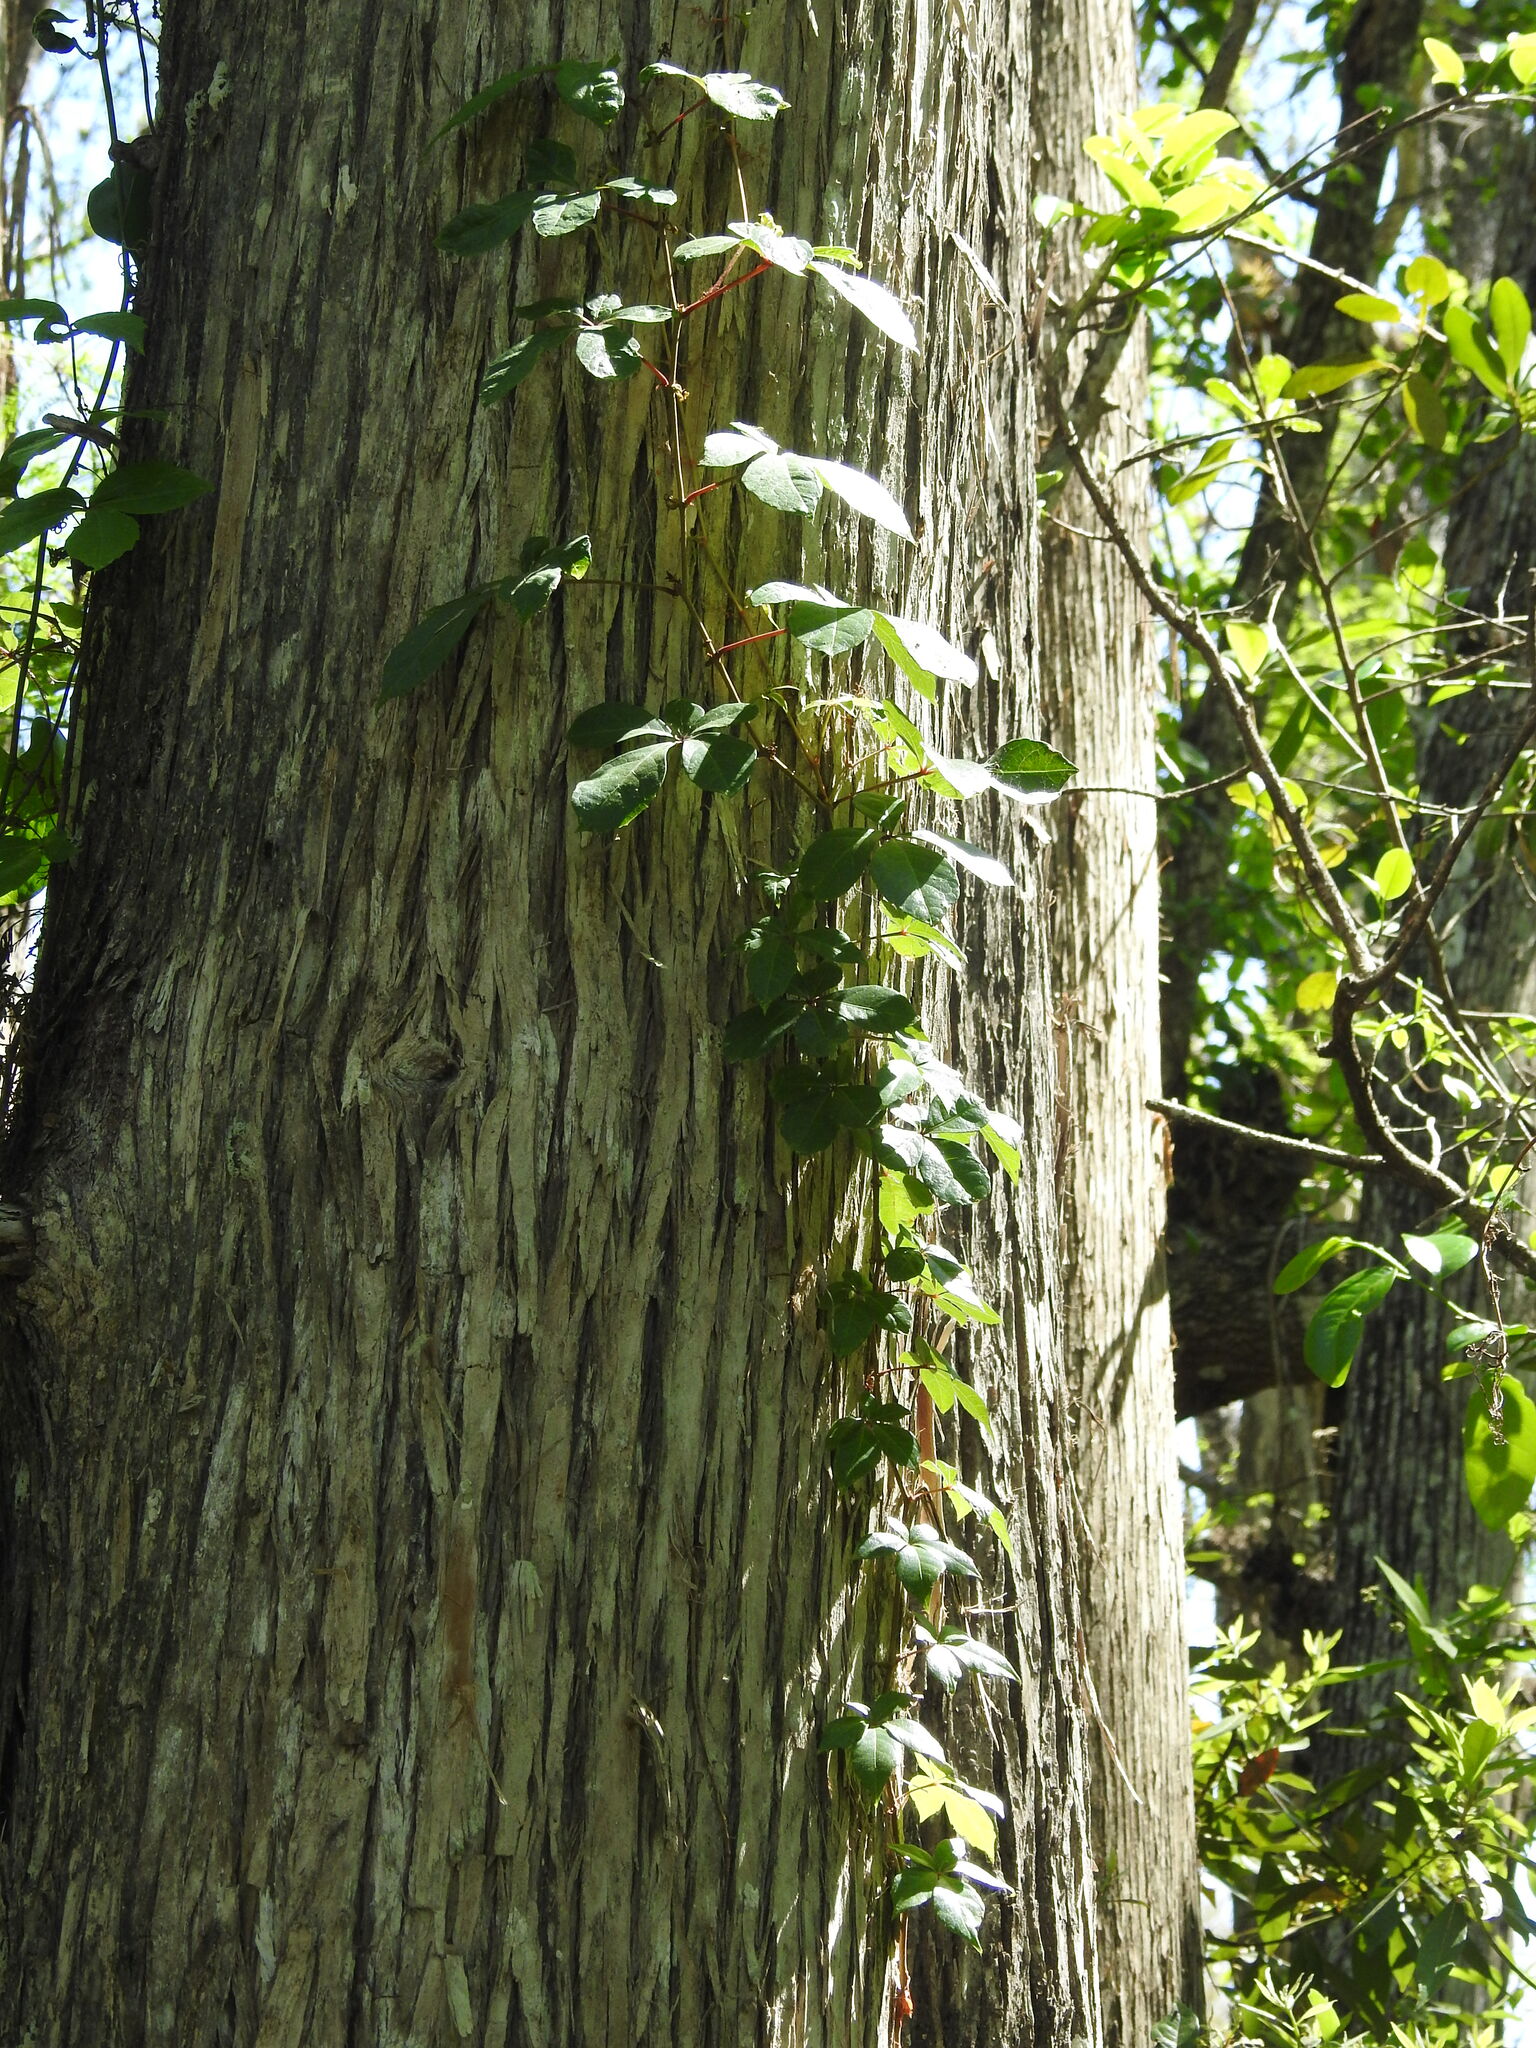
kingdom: Plantae
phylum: Tracheophyta
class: Magnoliopsida
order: Vitales
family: Vitaceae
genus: Parthenocissus
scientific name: Parthenocissus quinquefolia
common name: Virginia-creeper
